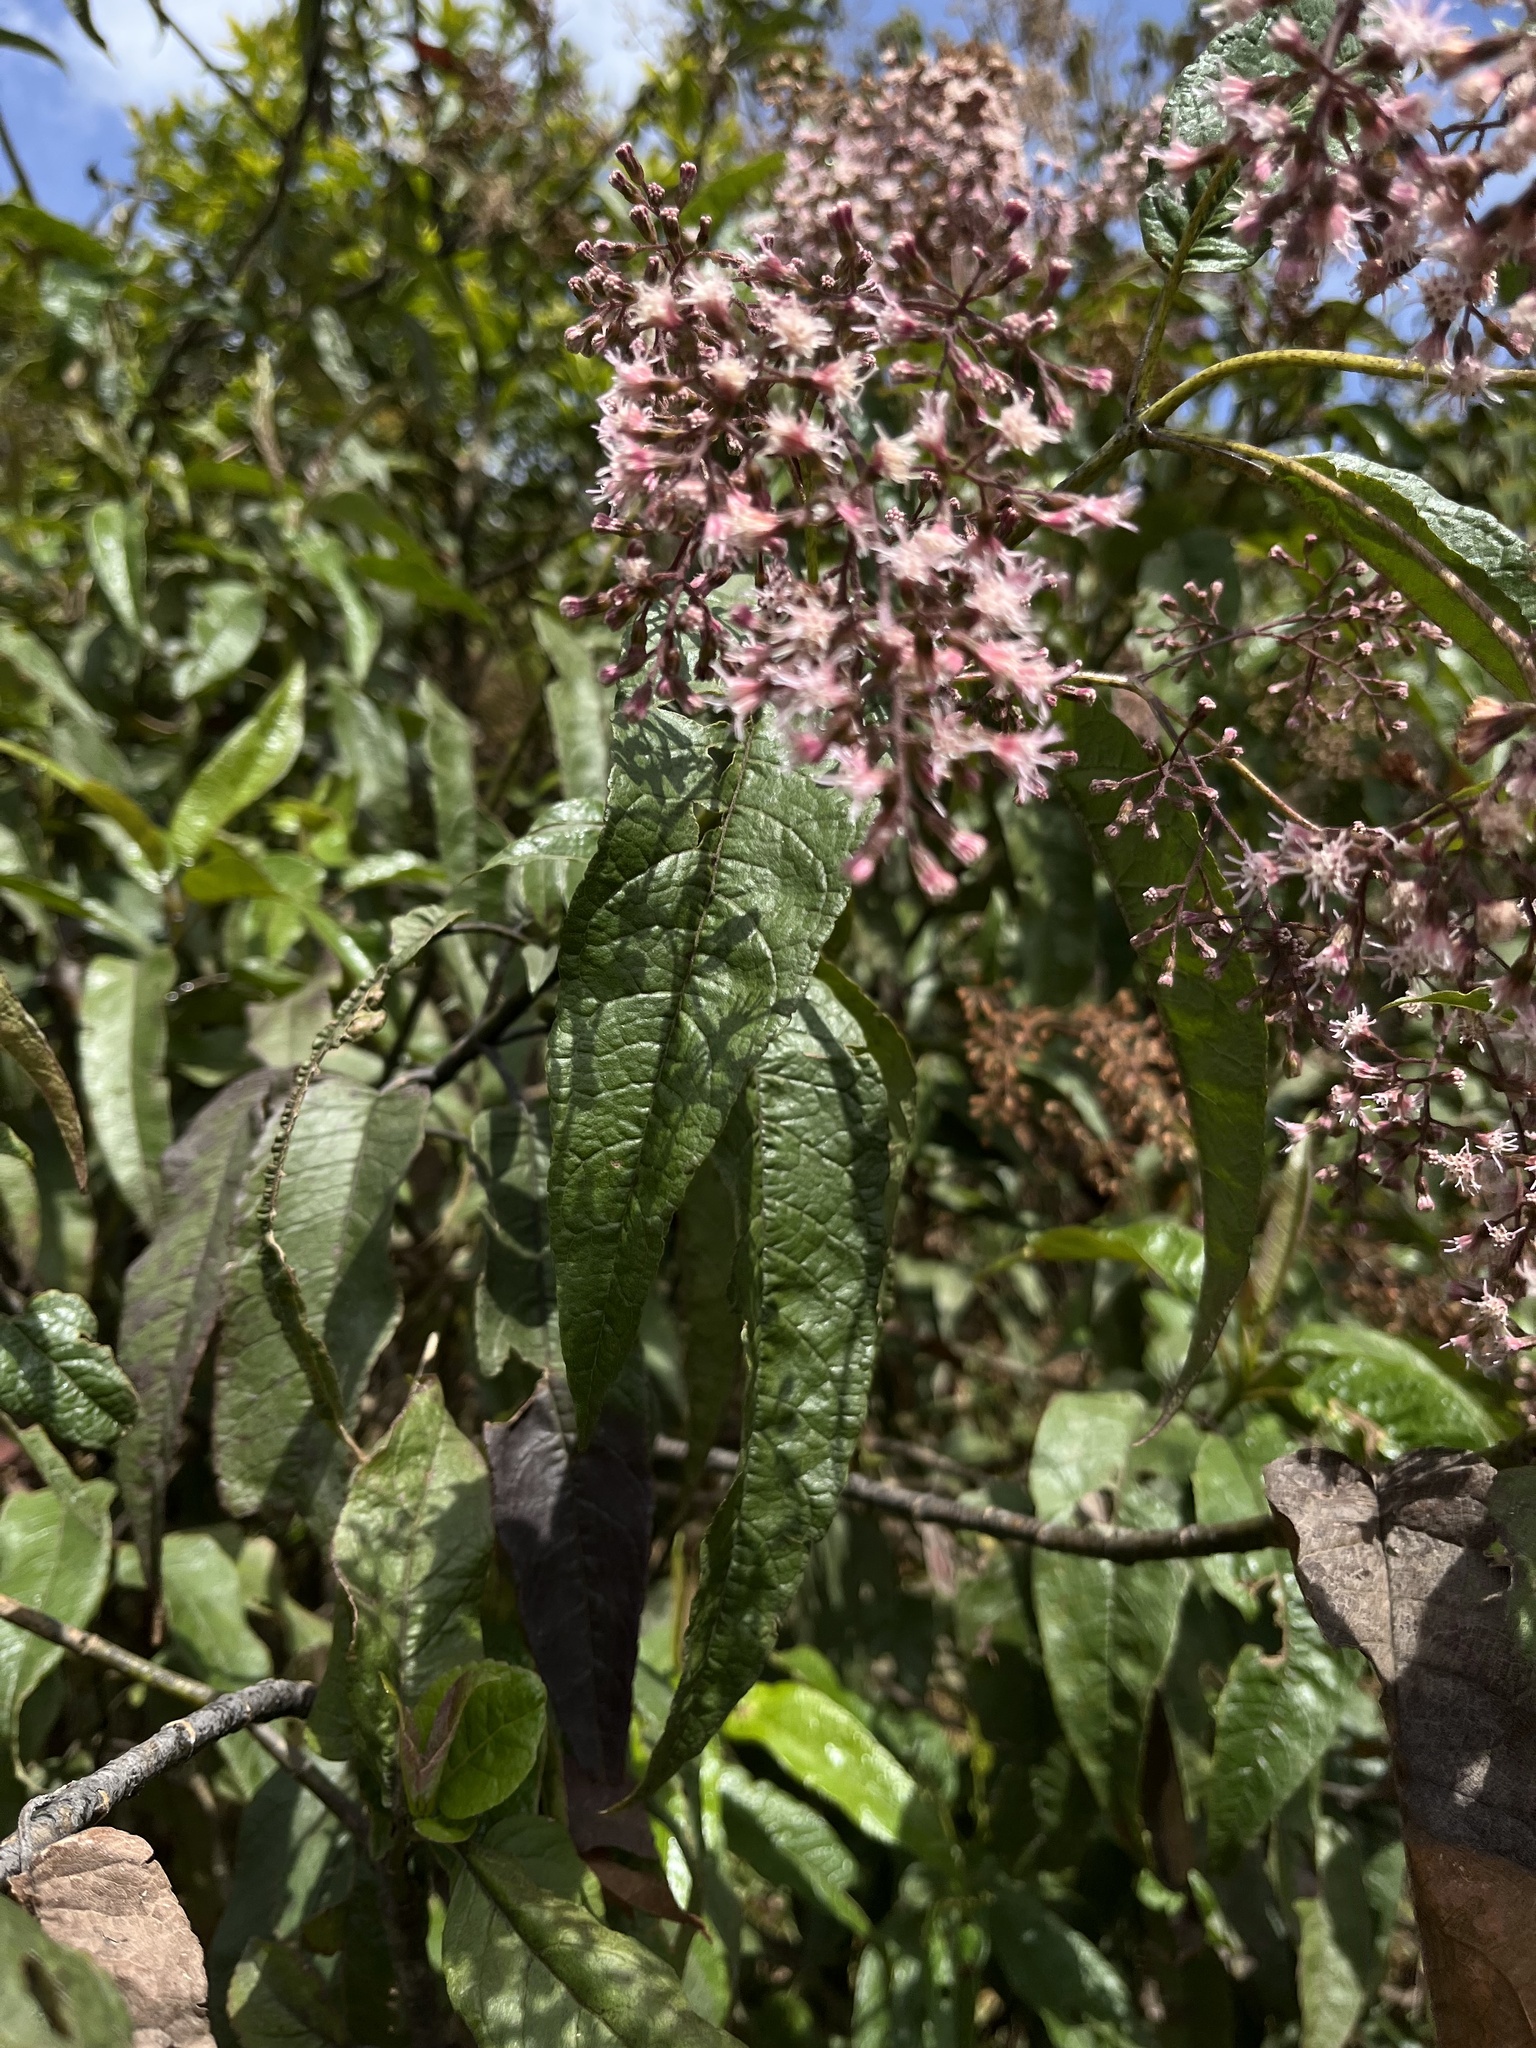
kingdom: Plantae
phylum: Tracheophyta
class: Magnoliopsida
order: Asterales
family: Asteraceae
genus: Ageratina
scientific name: Ageratina ampla
